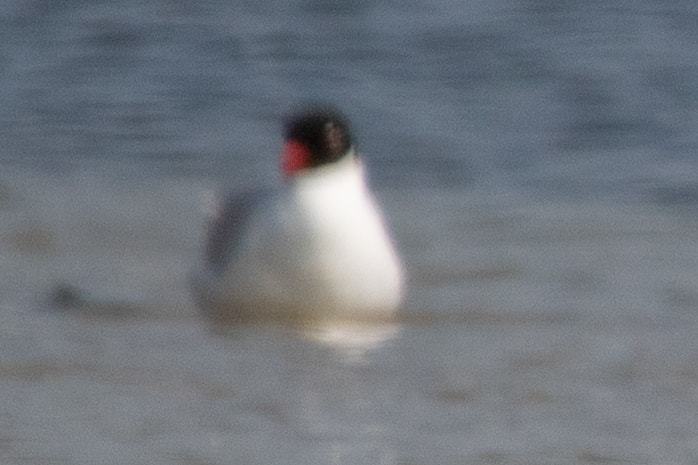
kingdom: Animalia
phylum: Chordata
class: Aves
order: Charadriiformes
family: Laridae
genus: Ichthyaetus
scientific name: Ichthyaetus melanocephalus
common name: Mediterranean gull
